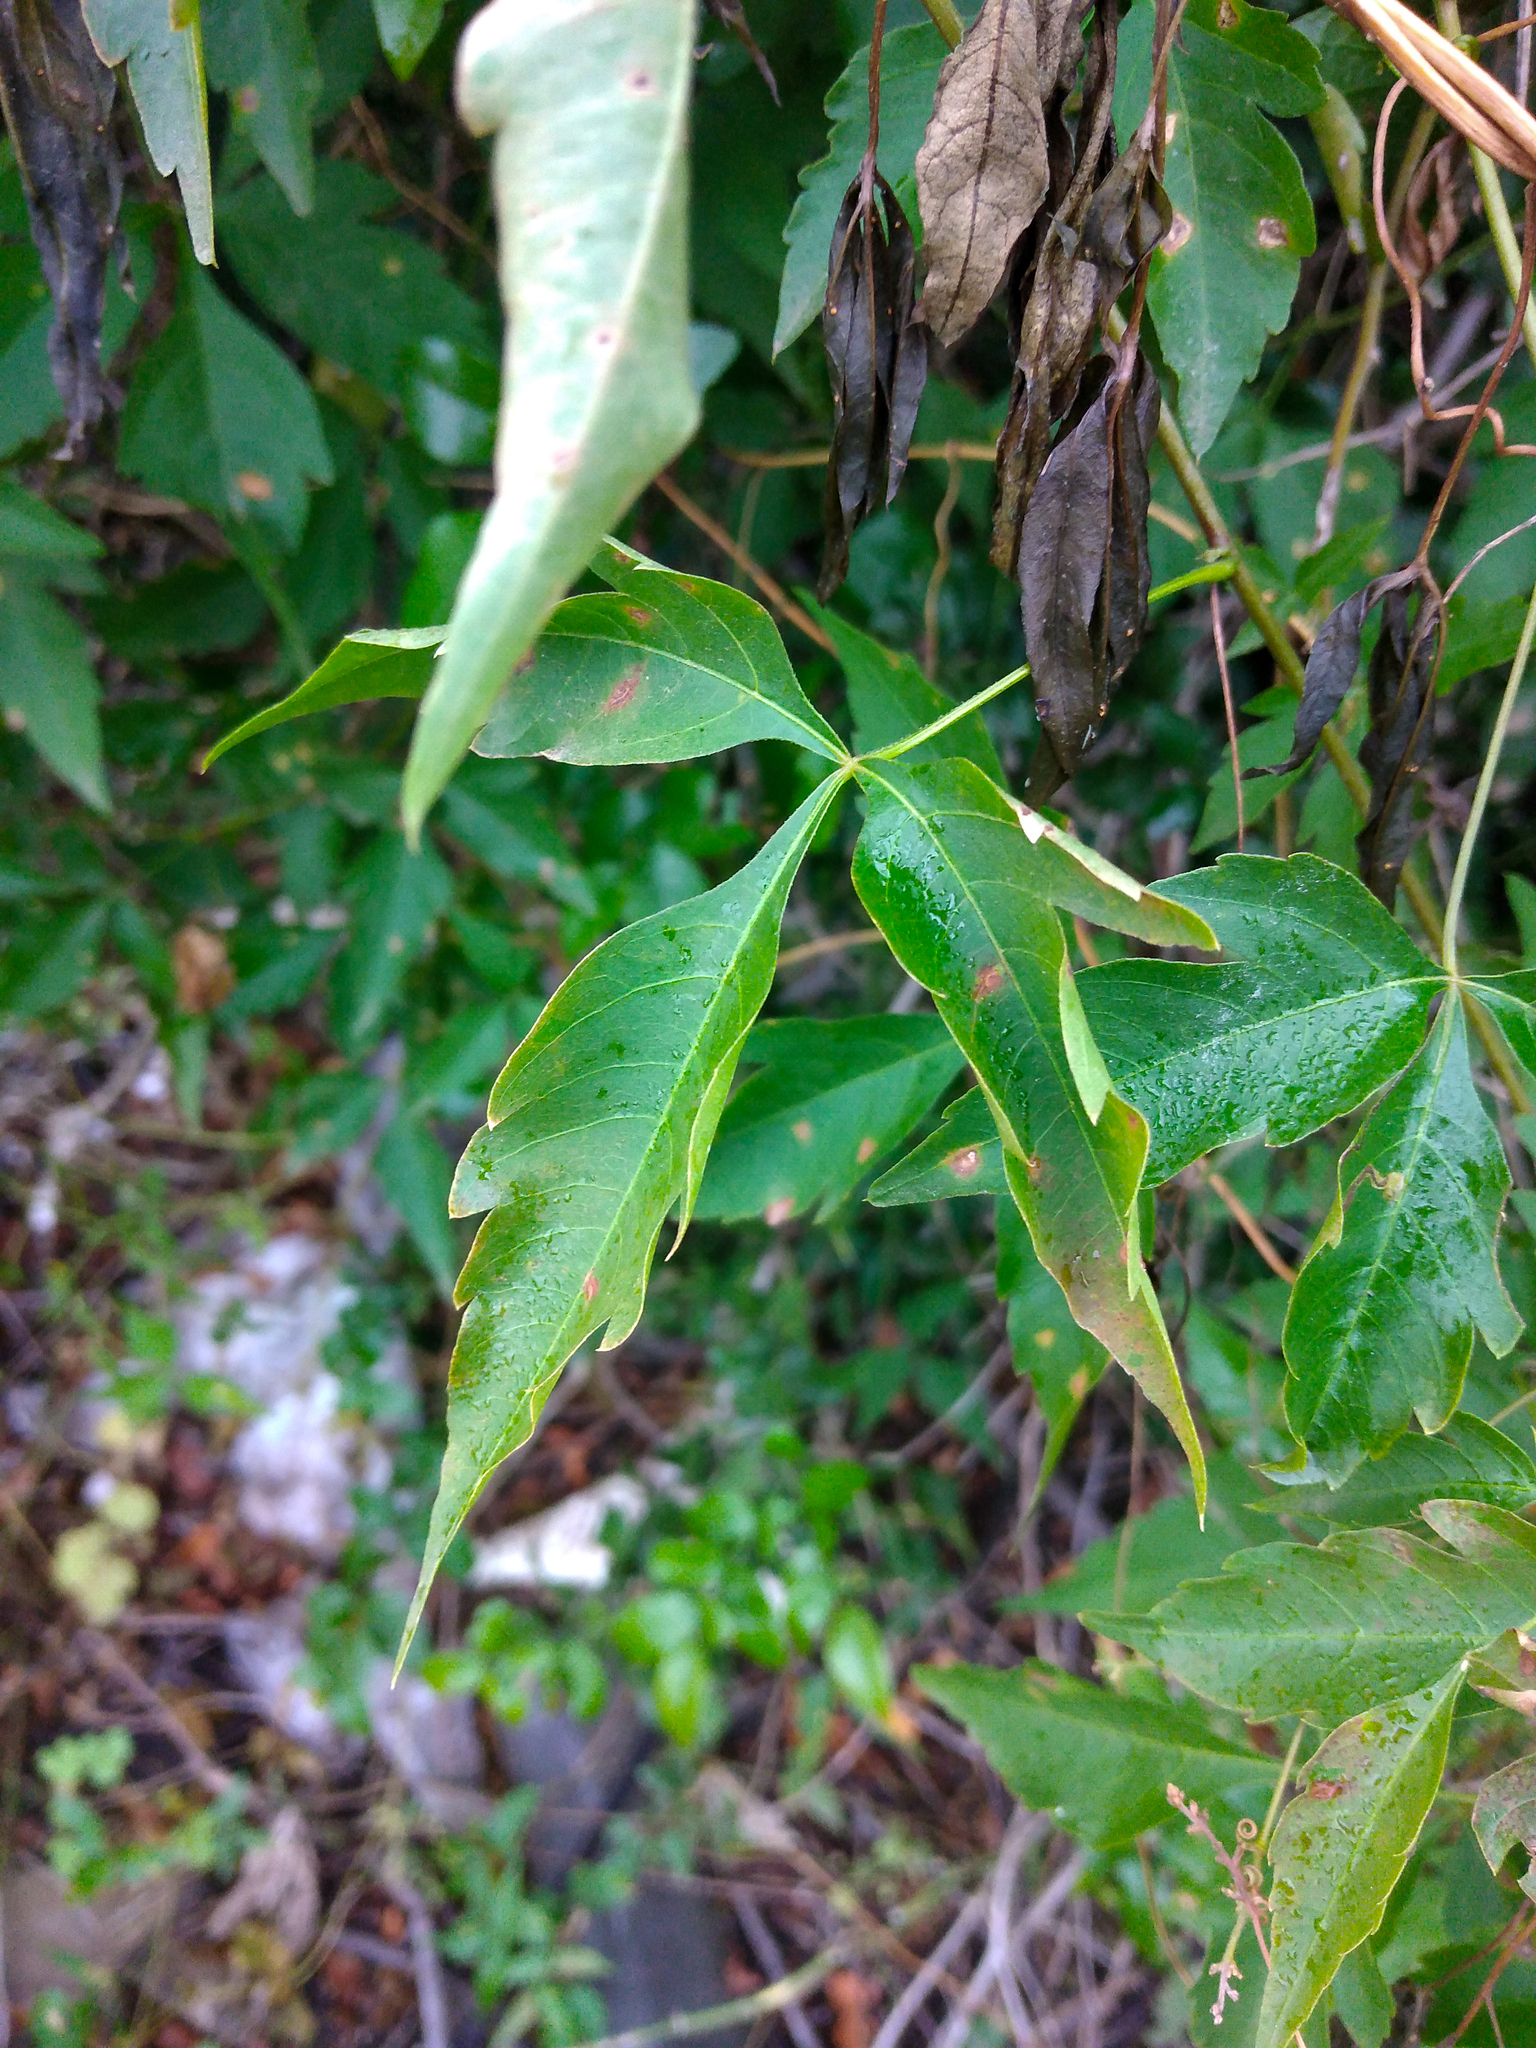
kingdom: Plantae
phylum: Tracheophyta
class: Magnoliopsida
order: Sapindales
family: Sapindaceae
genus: Allophylus
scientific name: Allophylus edulis
